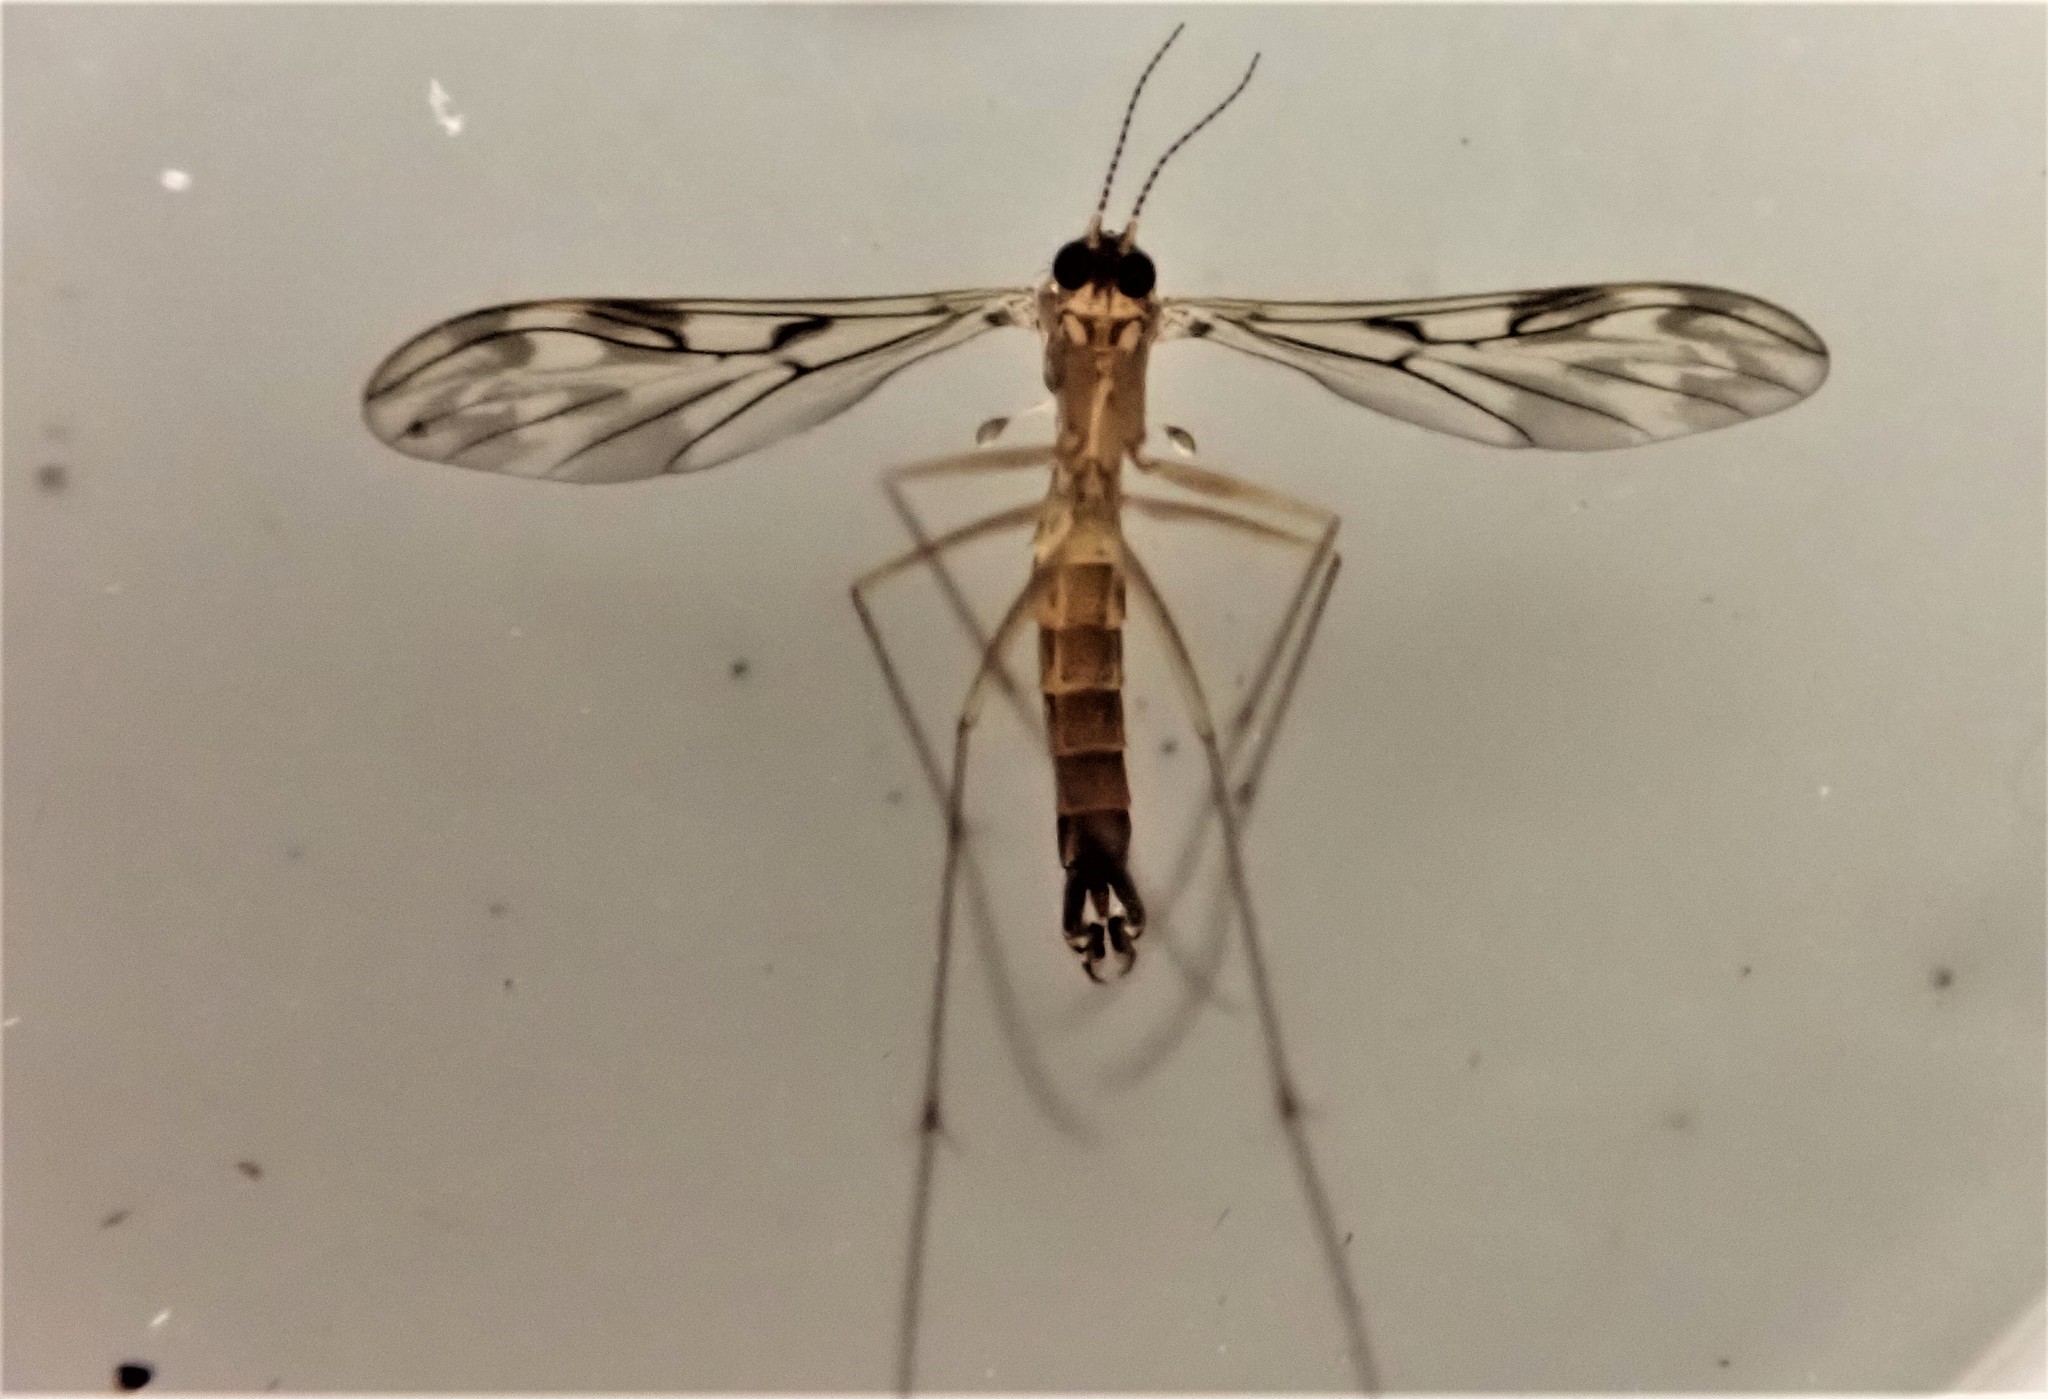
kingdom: Animalia
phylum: Arthropoda
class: Insecta
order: Diptera
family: Ditomyiidae
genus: Nervijuncta
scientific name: Nervijuncta wakefieldi
